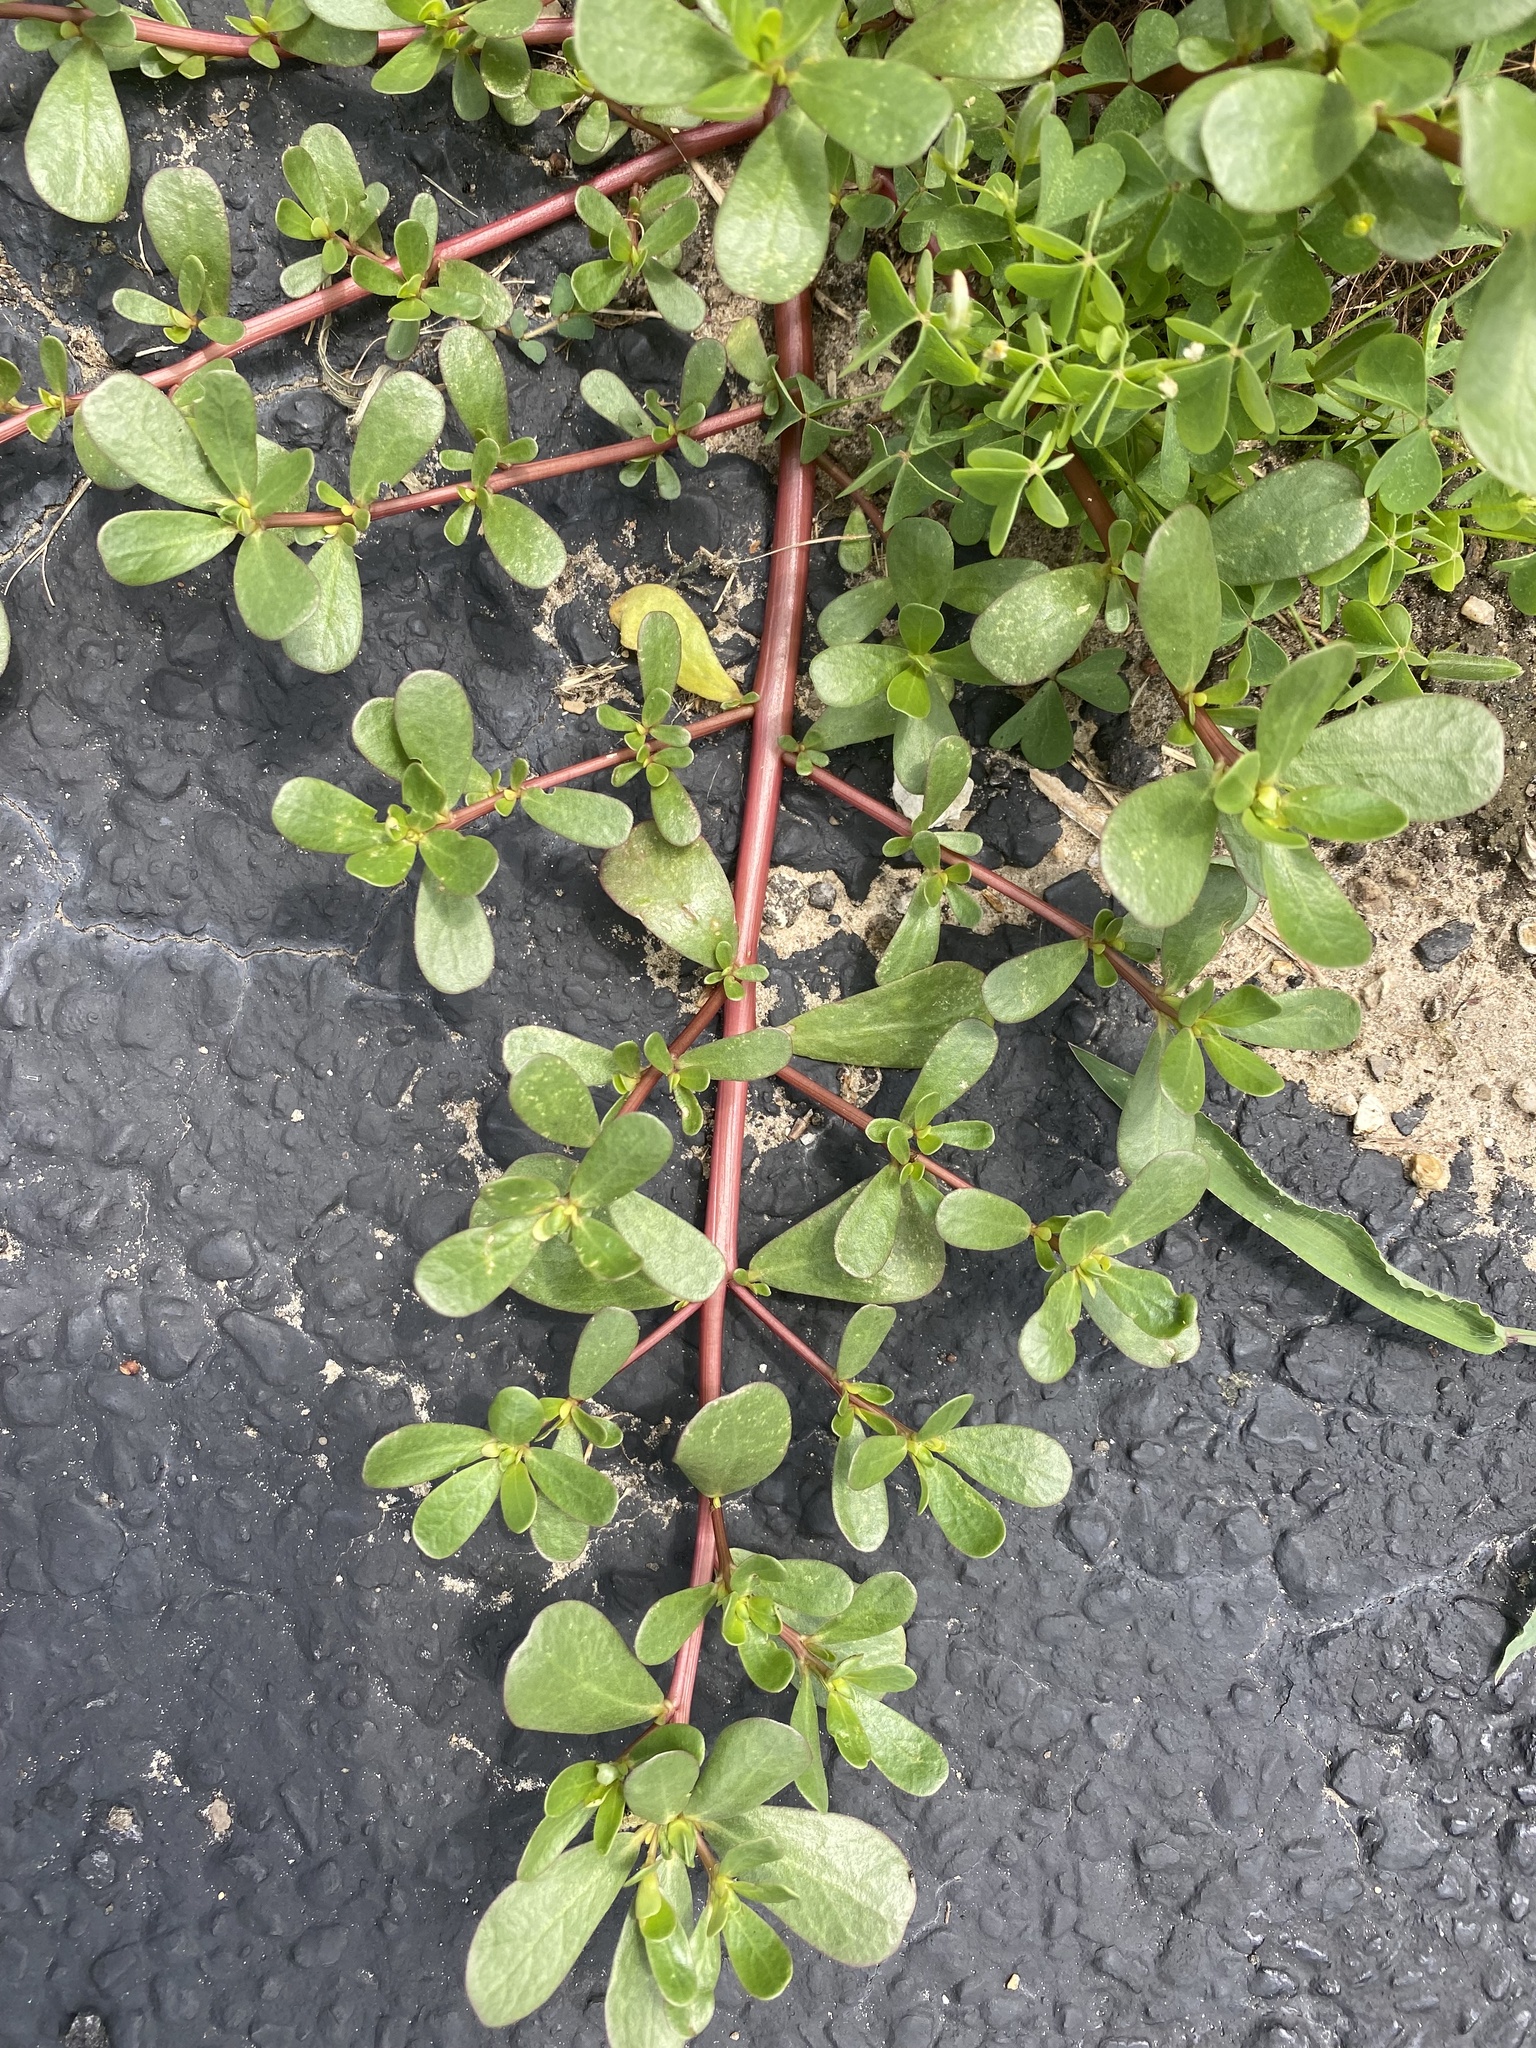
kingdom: Plantae
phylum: Tracheophyta
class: Magnoliopsida
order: Caryophyllales
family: Portulacaceae
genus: Portulaca
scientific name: Portulaca oleracea
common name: Common purslane
